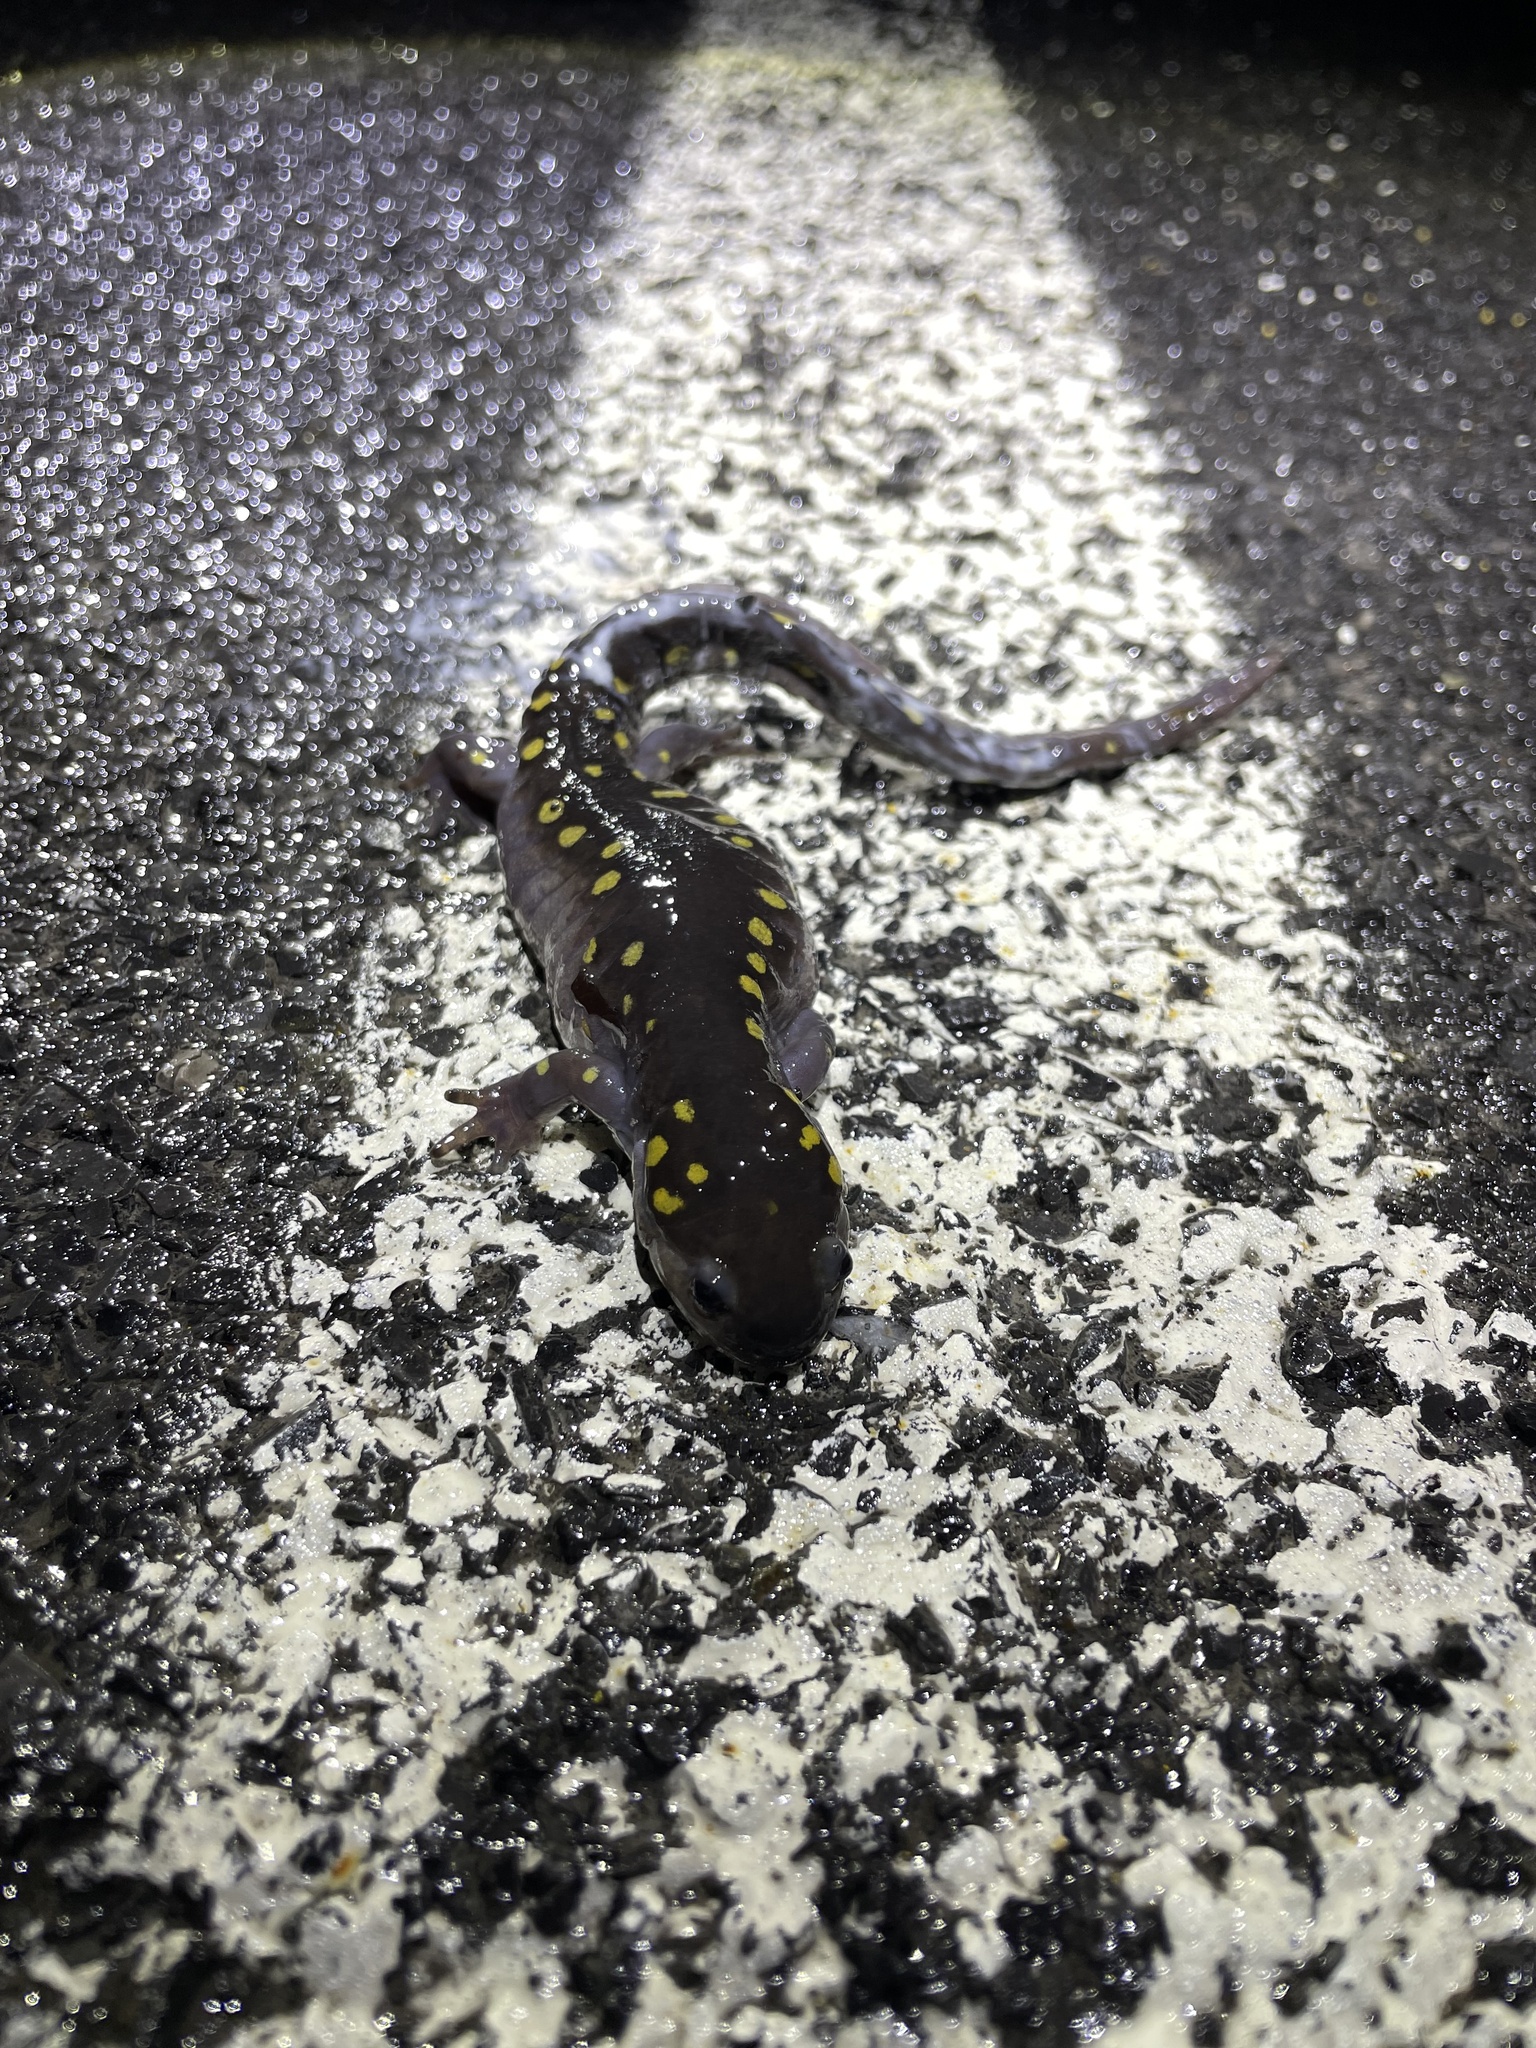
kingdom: Animalia
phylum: Chordata
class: Amphibia
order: Caudata
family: Ambystomatidae
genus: Ambystoma
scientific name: Ambystoma maculatum
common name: Spotted salamander
